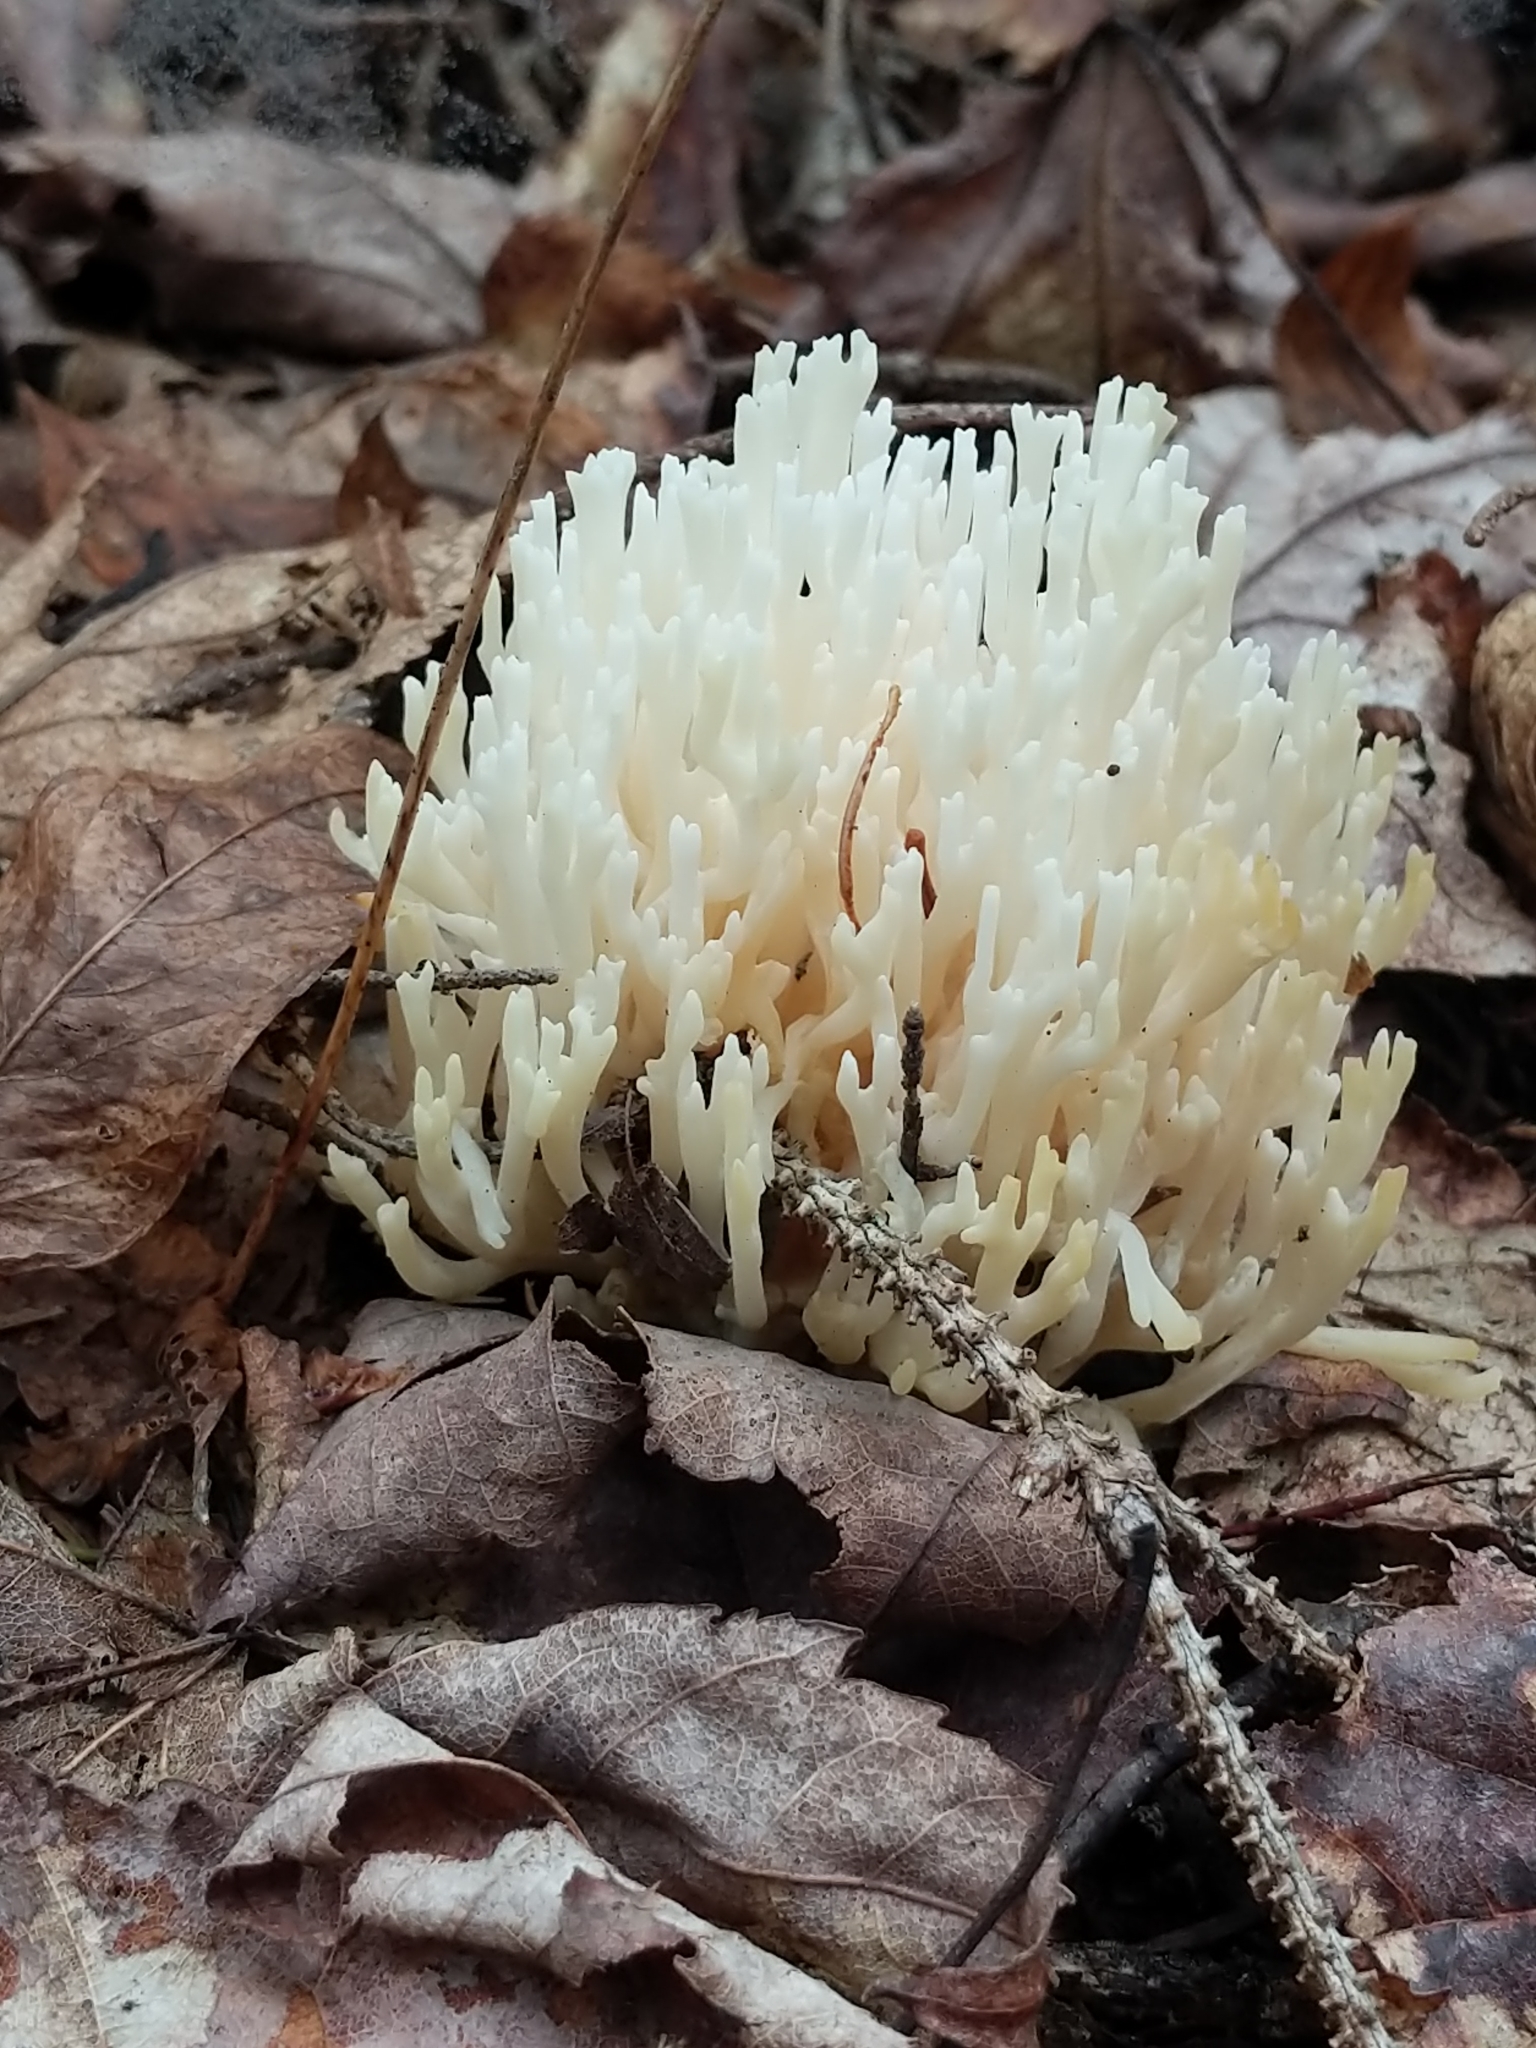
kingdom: Fungi
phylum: Basidiomycota
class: Agaricomycetes
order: Agaricales
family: Clavariaceae
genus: Ramariopsis
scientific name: Ramariopsis kunzei
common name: Ivory coral
